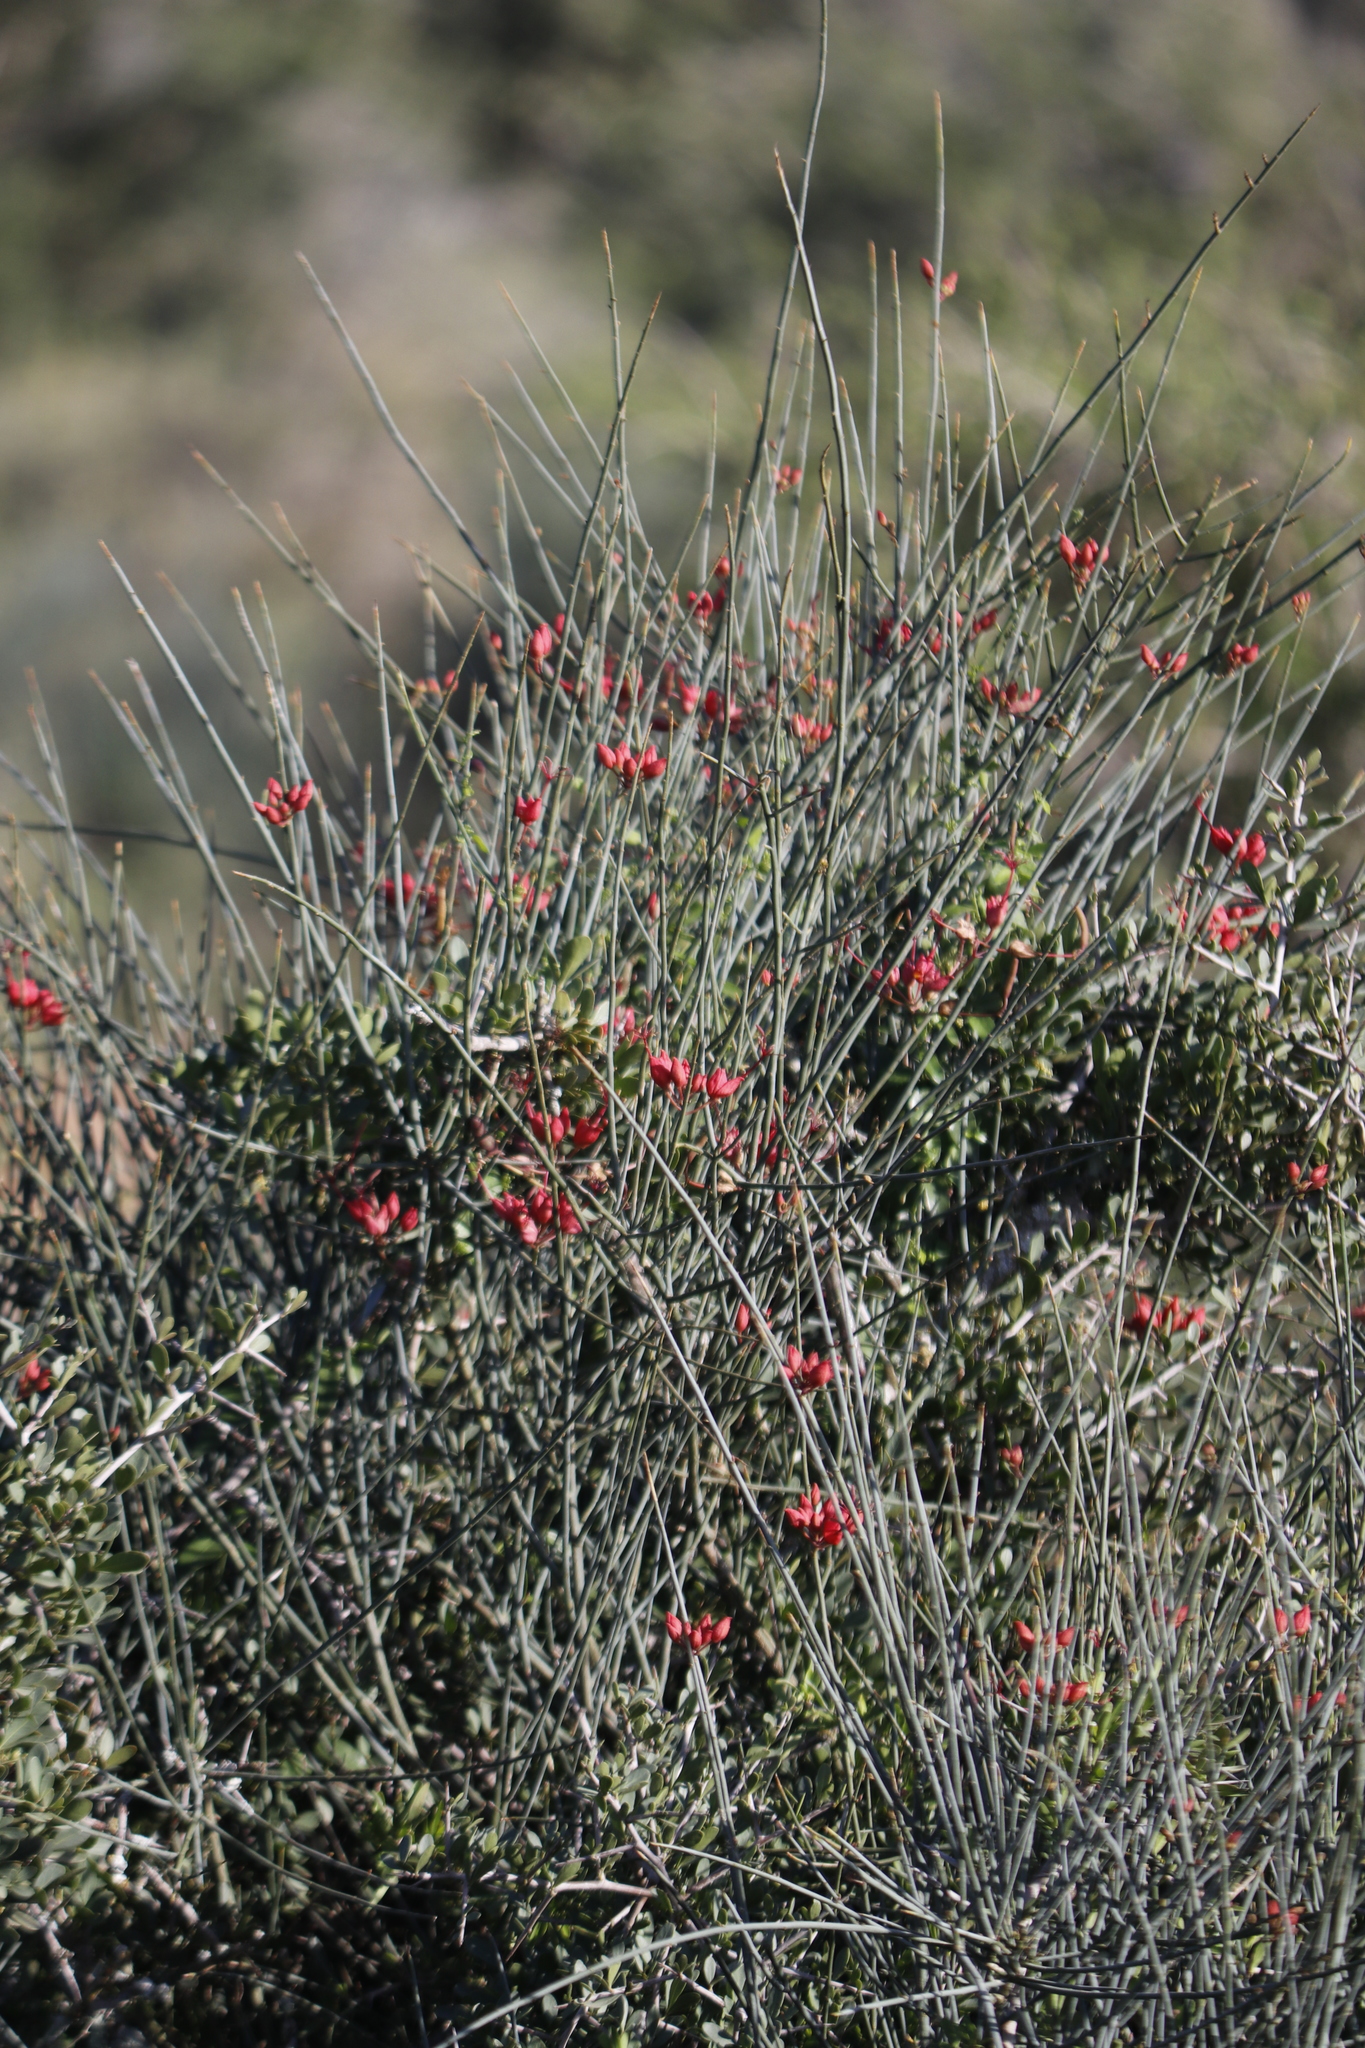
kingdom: Plantae
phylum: Tracheophyta
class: Magnoliopsida
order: Brassicales
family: Capparaceae
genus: Cadaba
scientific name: Cadaba aphylla
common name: Black storm
